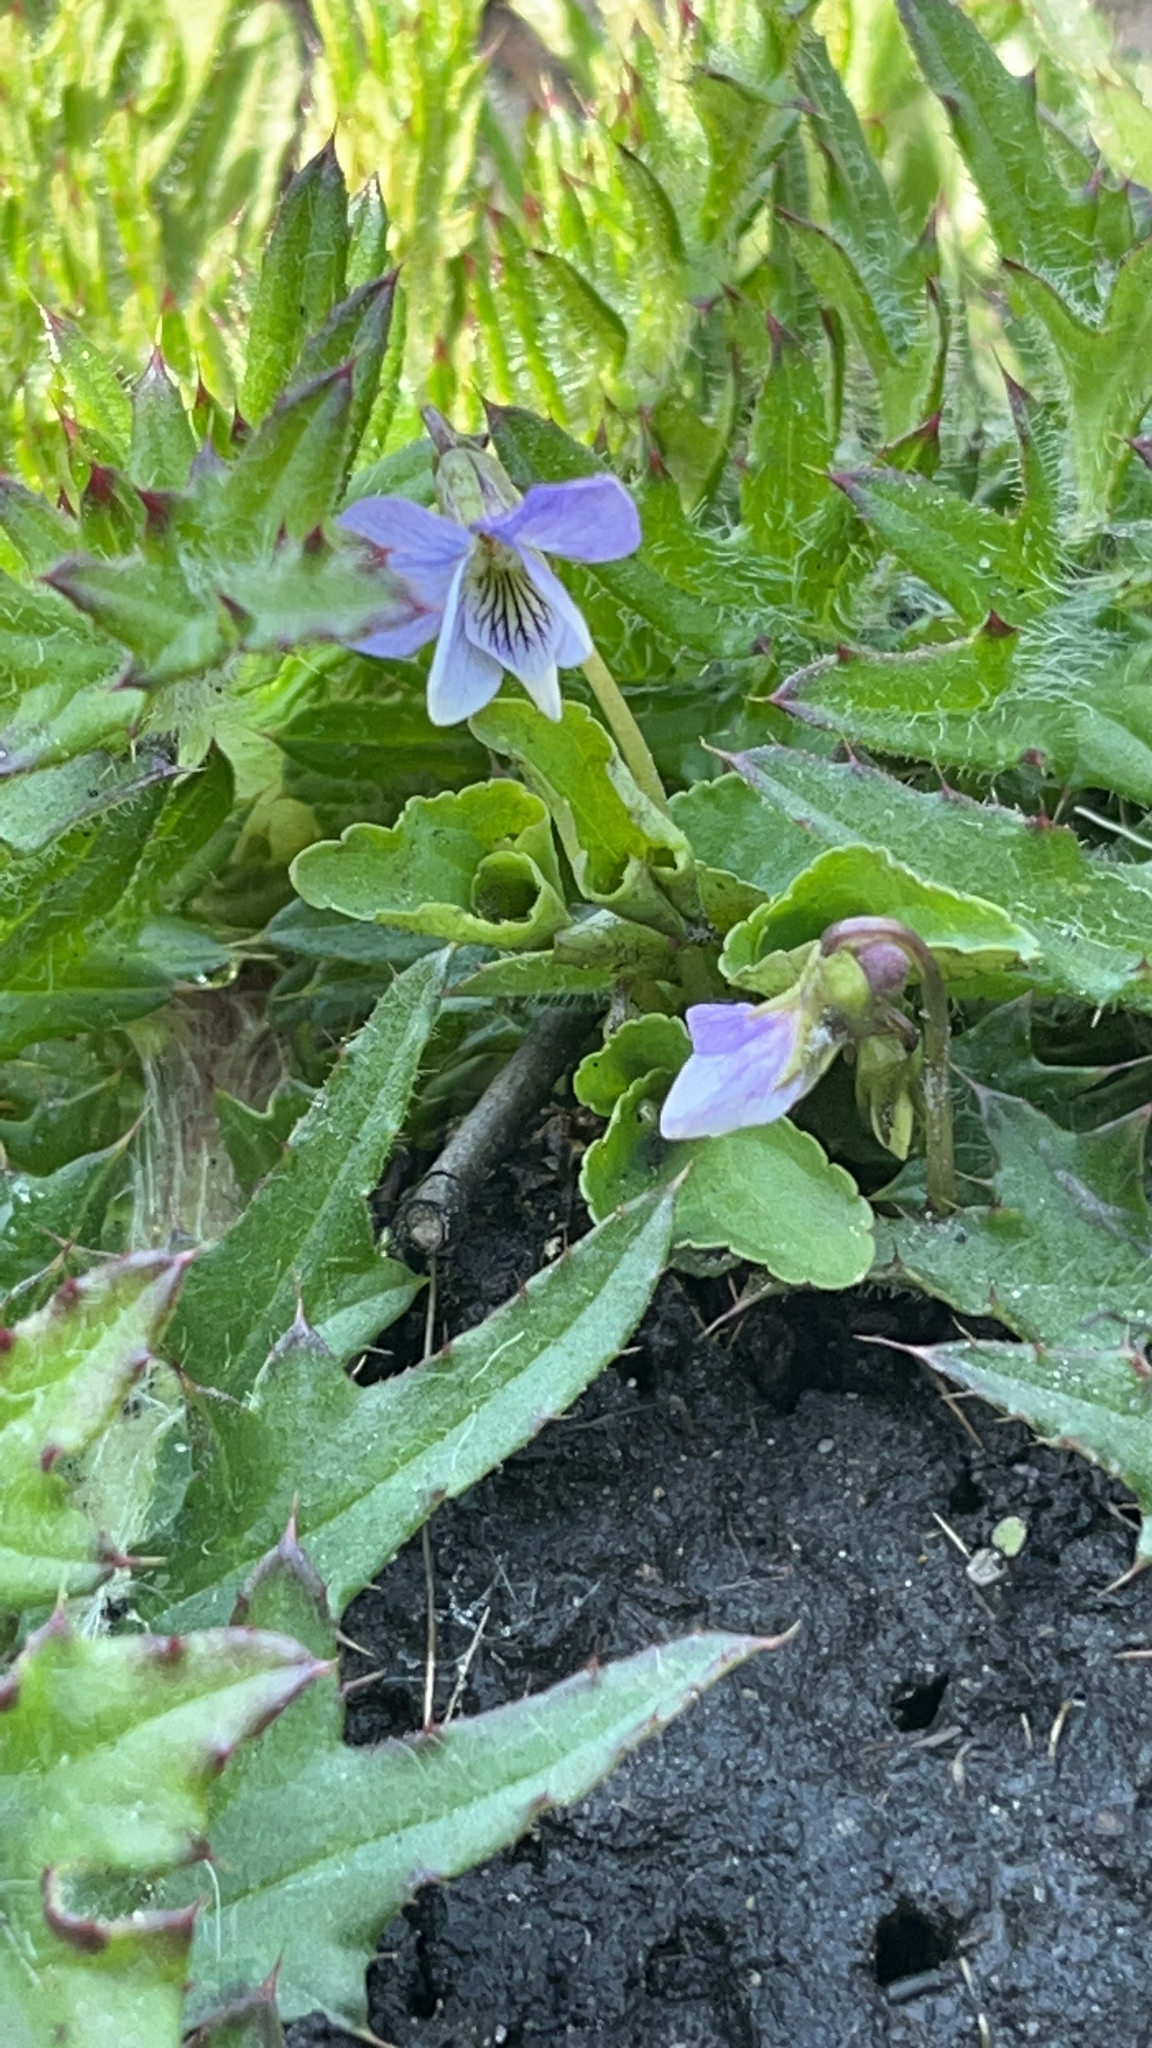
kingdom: Plantae
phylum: Tracheophyta
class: Magnoliopsida
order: Malpighiales
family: Violaceae
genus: Viola
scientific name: Viola cucullata
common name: Marsh blue violet
